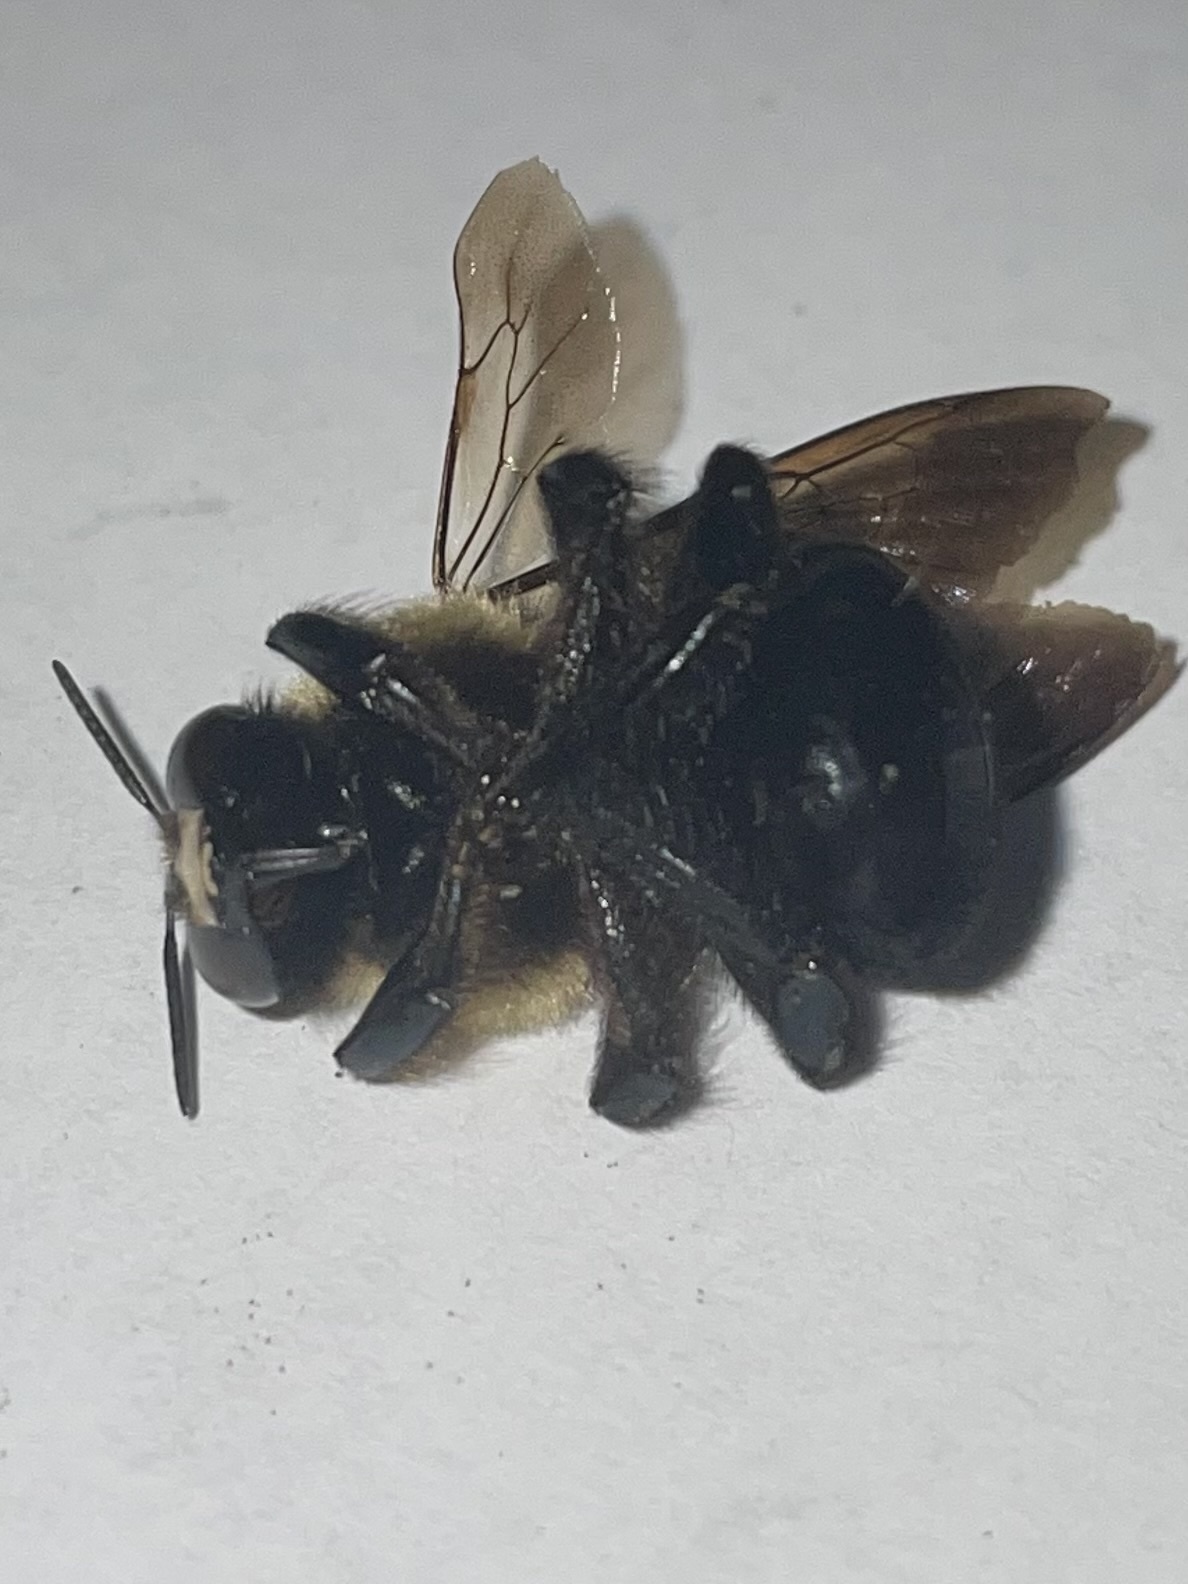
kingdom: Animalia
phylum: Arthropoda
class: Insecta
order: Hymenoptera
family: Apidae
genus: Xylocopa
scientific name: Xylocopa virginica
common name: Carpenter bee
